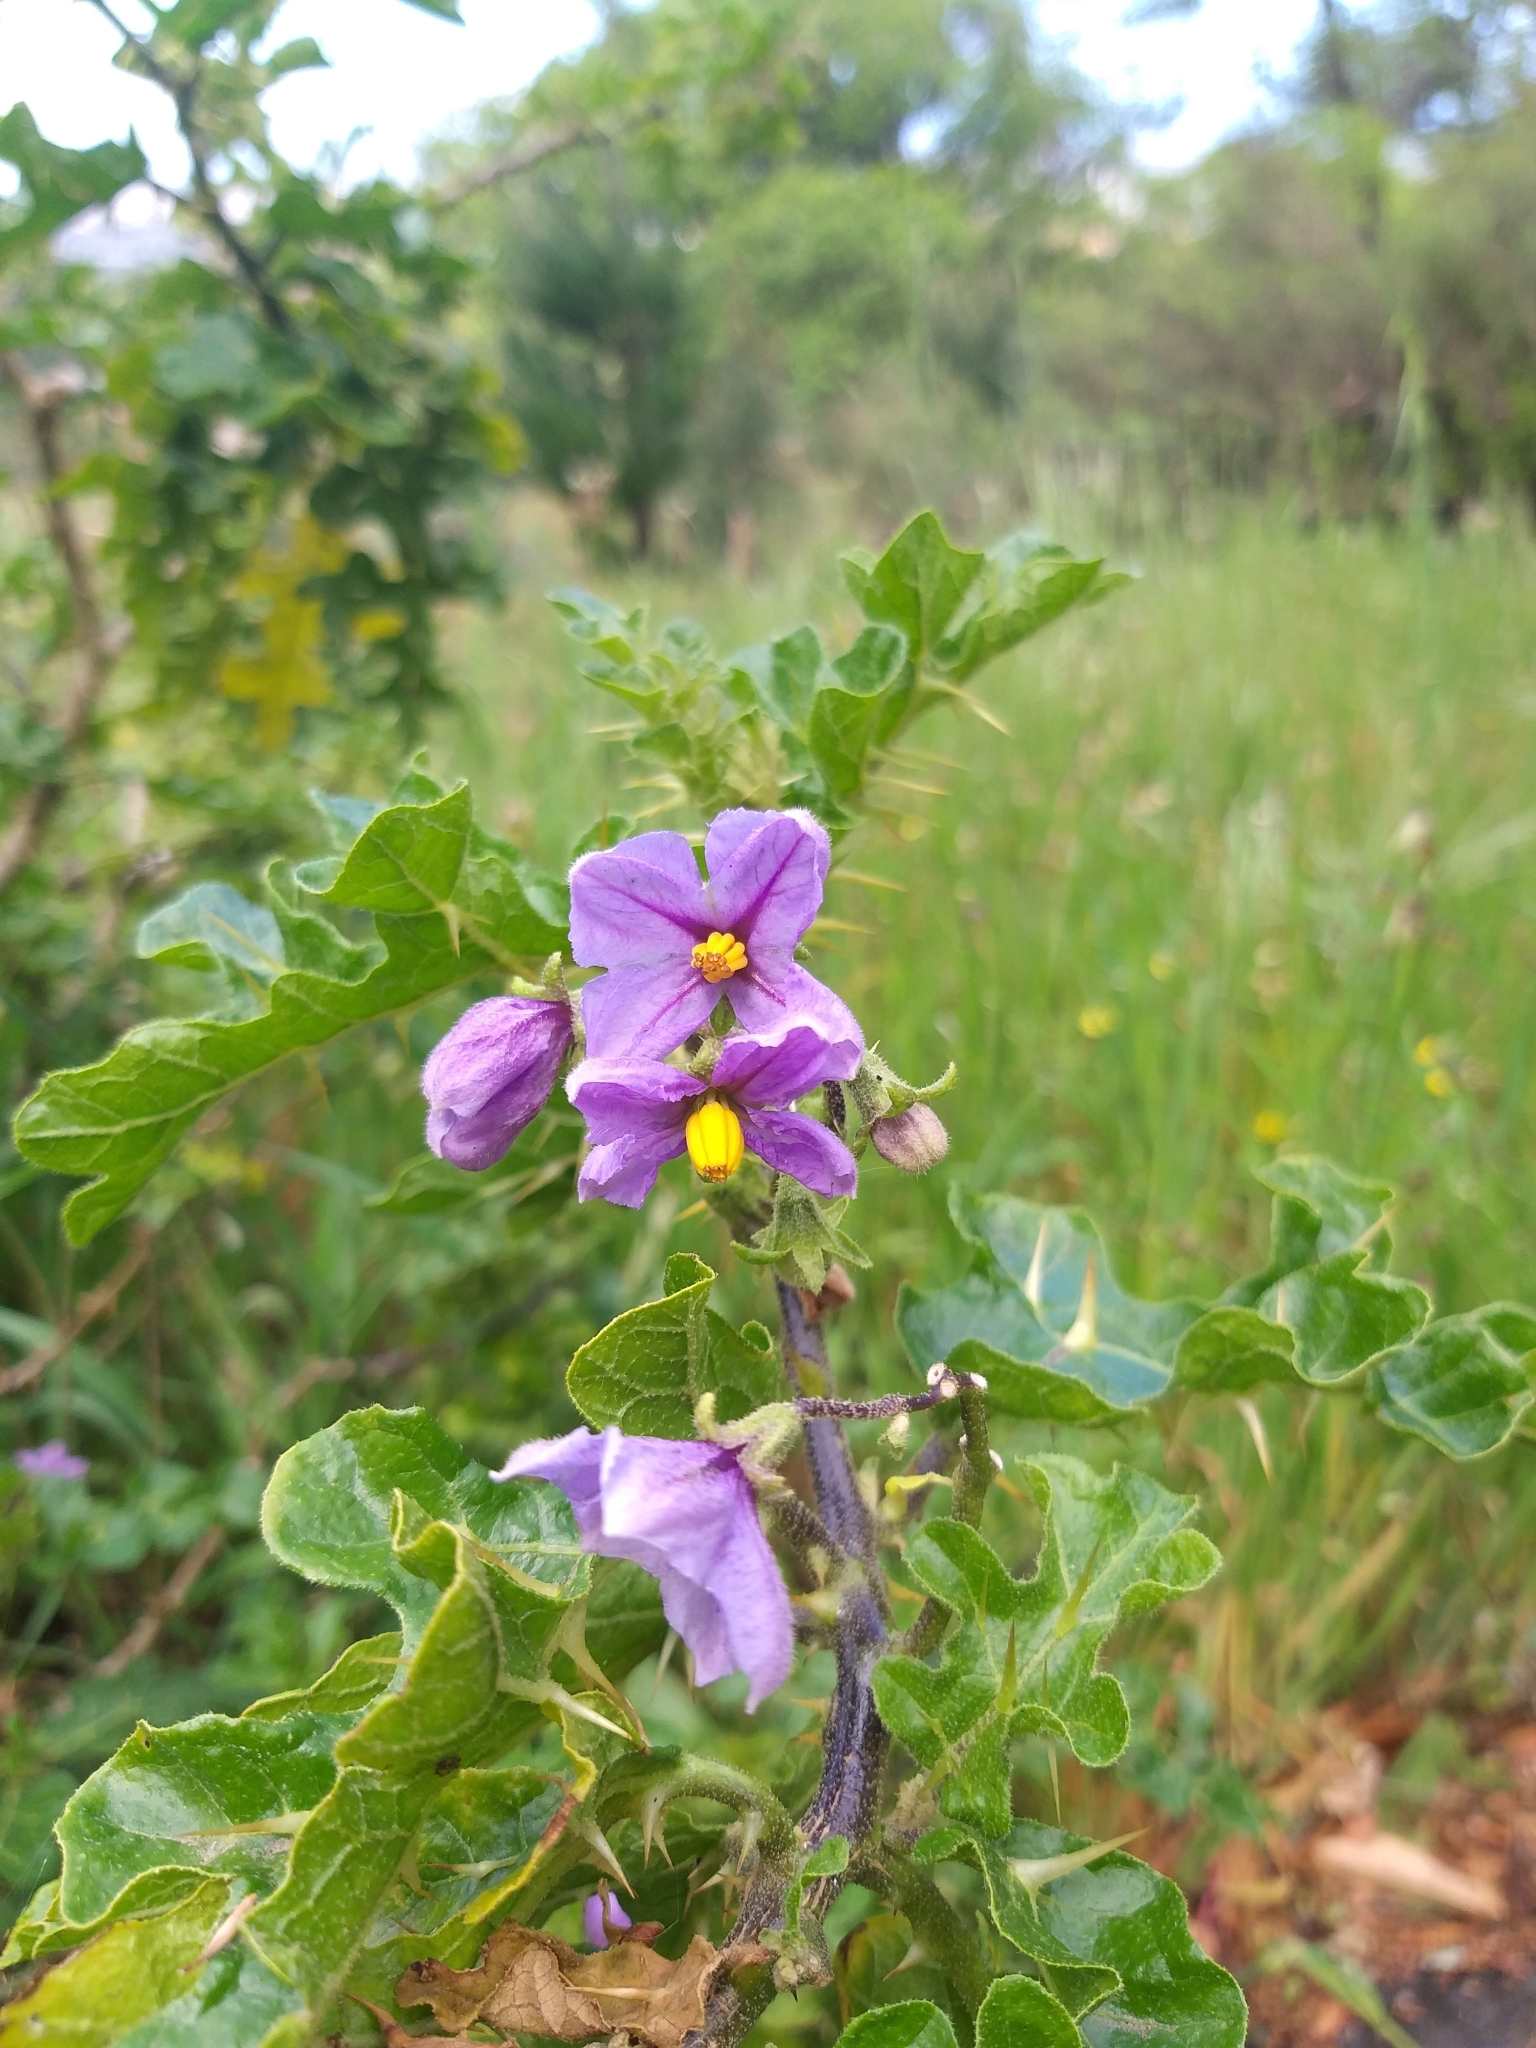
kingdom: Plantae
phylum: Tracheophyta
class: Magnoliopsida
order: Solanales
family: Solanaceae
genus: Solanum
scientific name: Solanum linnaeanum
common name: Nightshade
